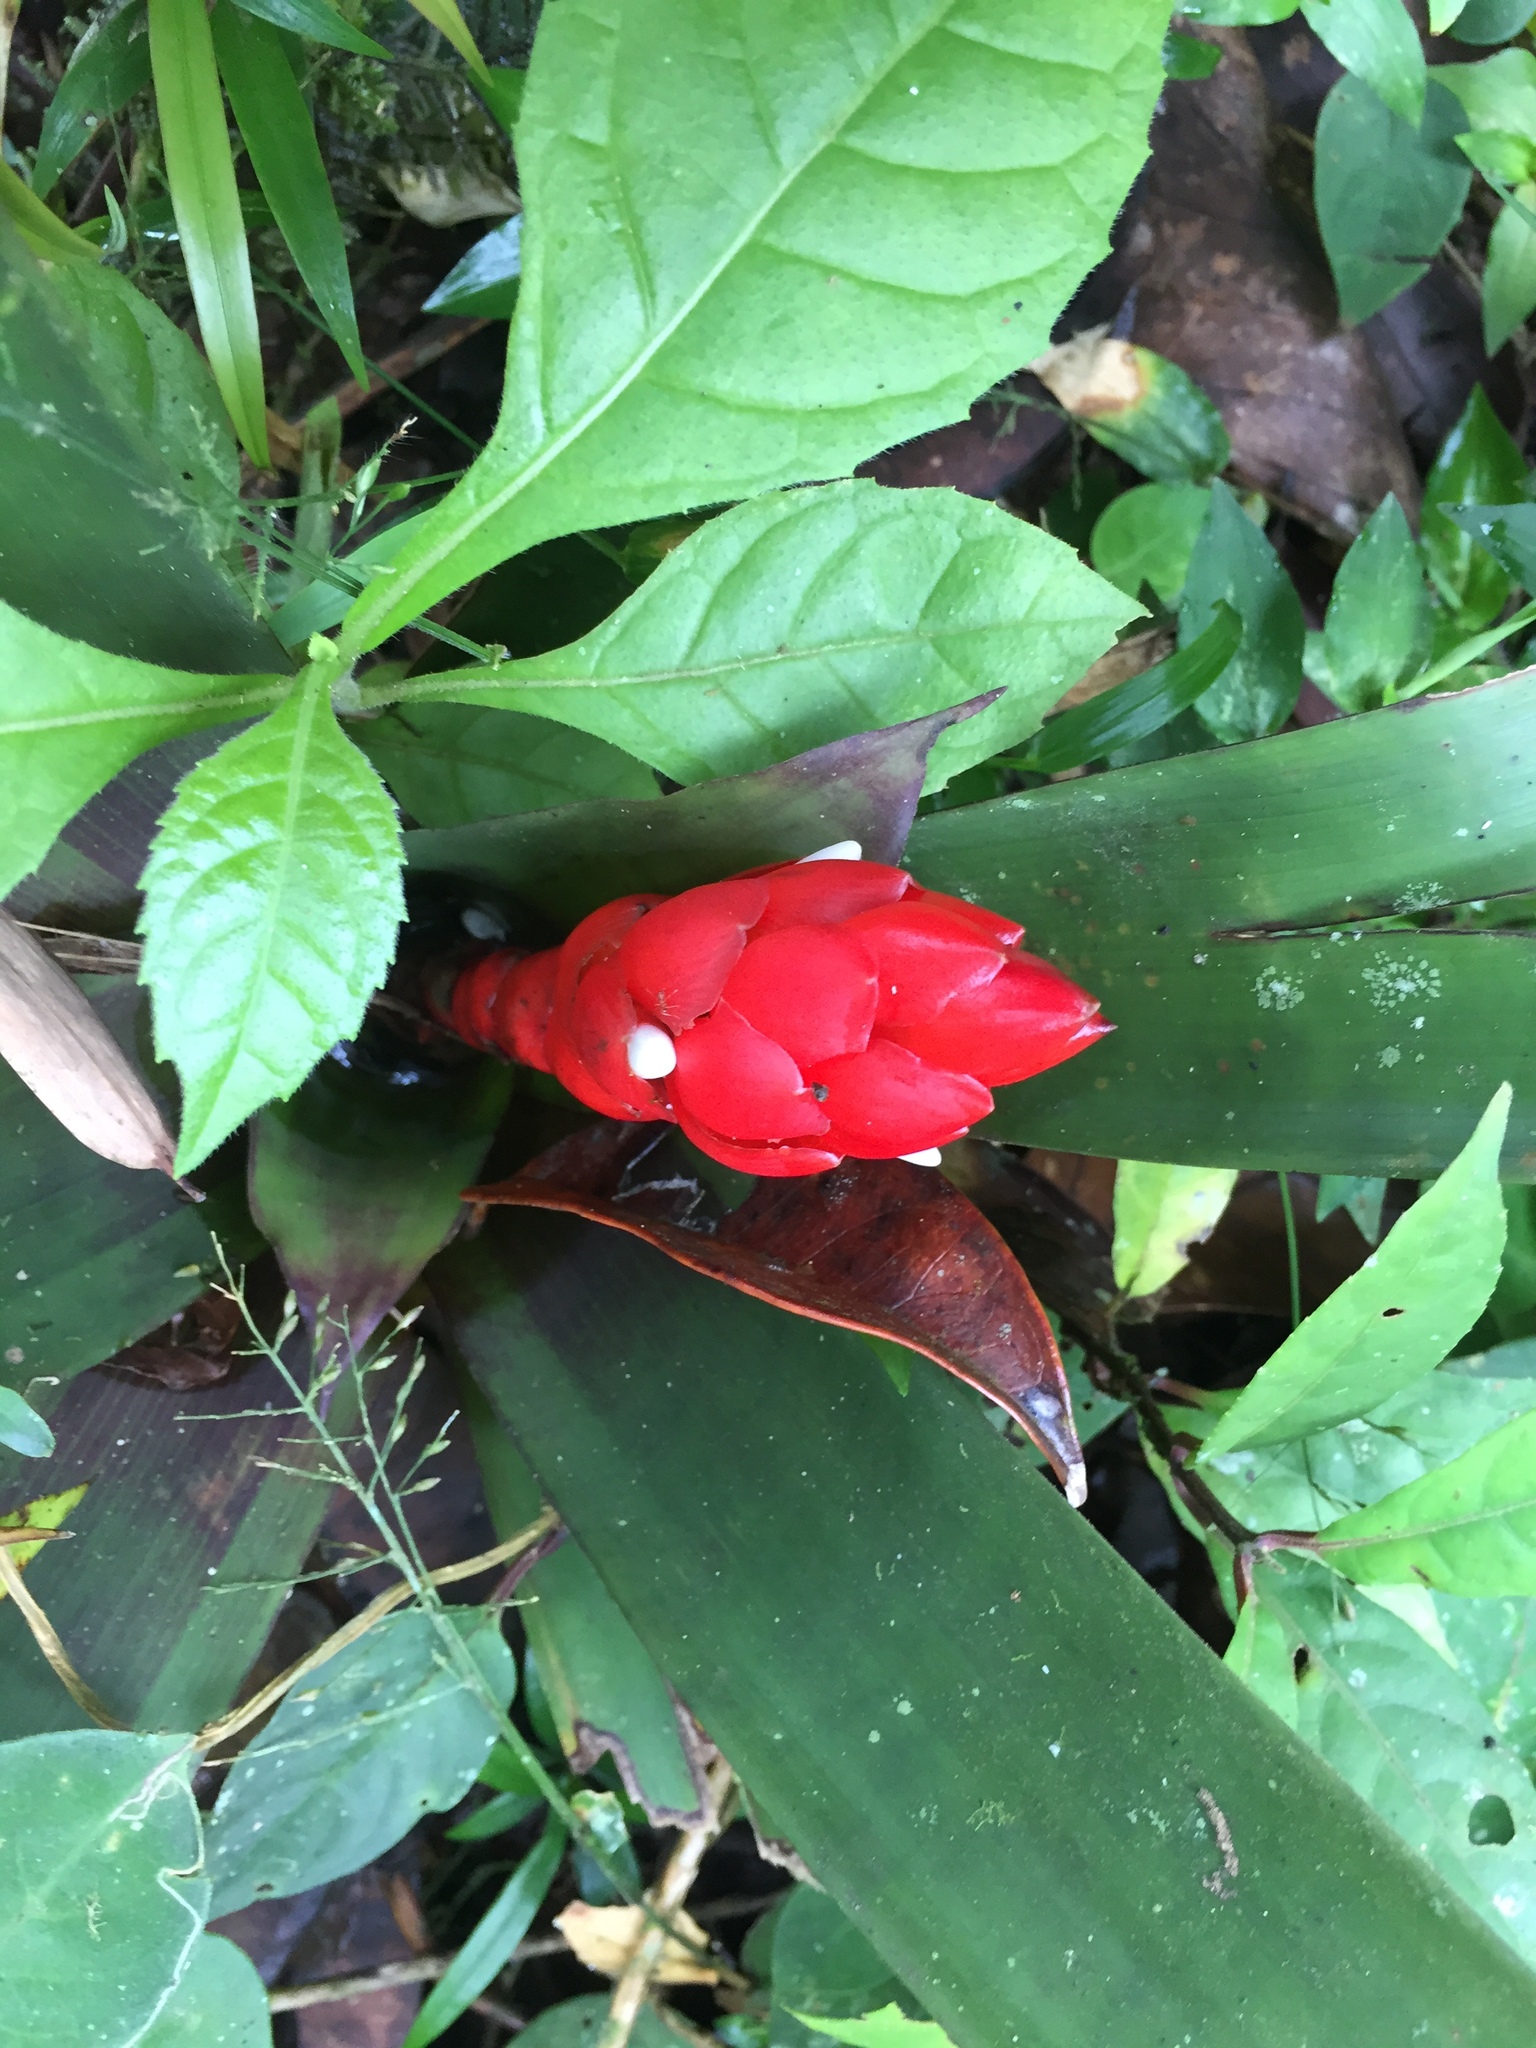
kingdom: Plantae
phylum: Tracheophyta
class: Liliopsida
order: Poales
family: Bromeliaceae
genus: Guzmania
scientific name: Guzmania desautelsii
